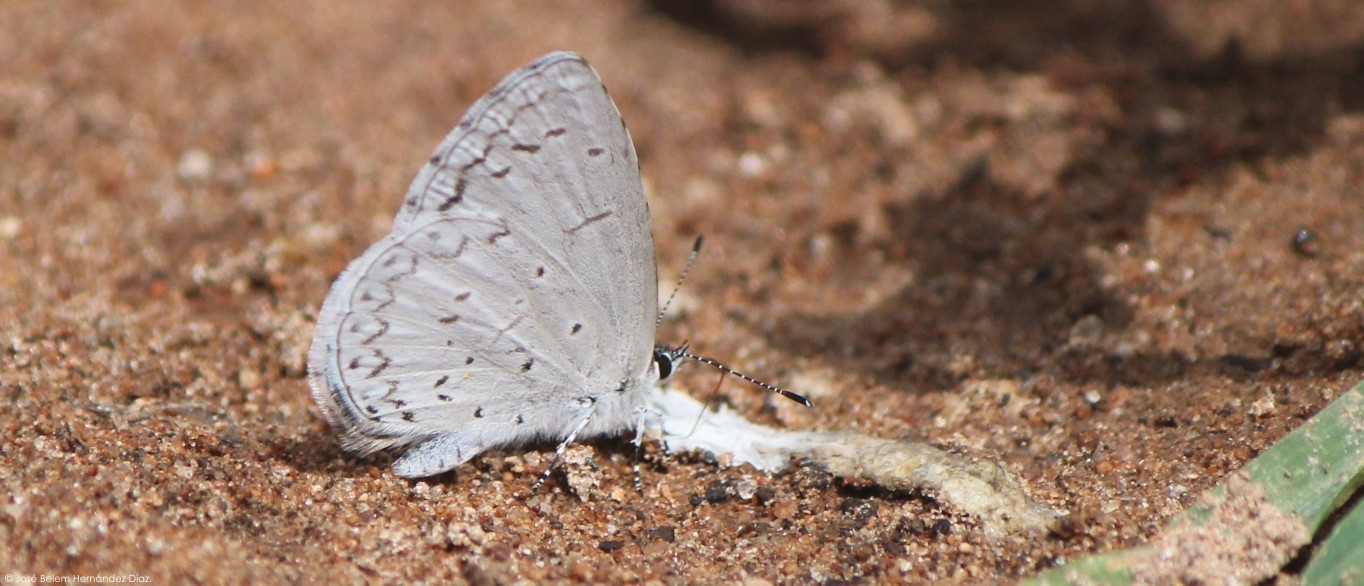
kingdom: Animalia
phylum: Arthropoda
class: Insecta
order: Lepidoptera
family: Lycaenidae
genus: Celastrina
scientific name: Celastrina ladon
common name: Spring azure
